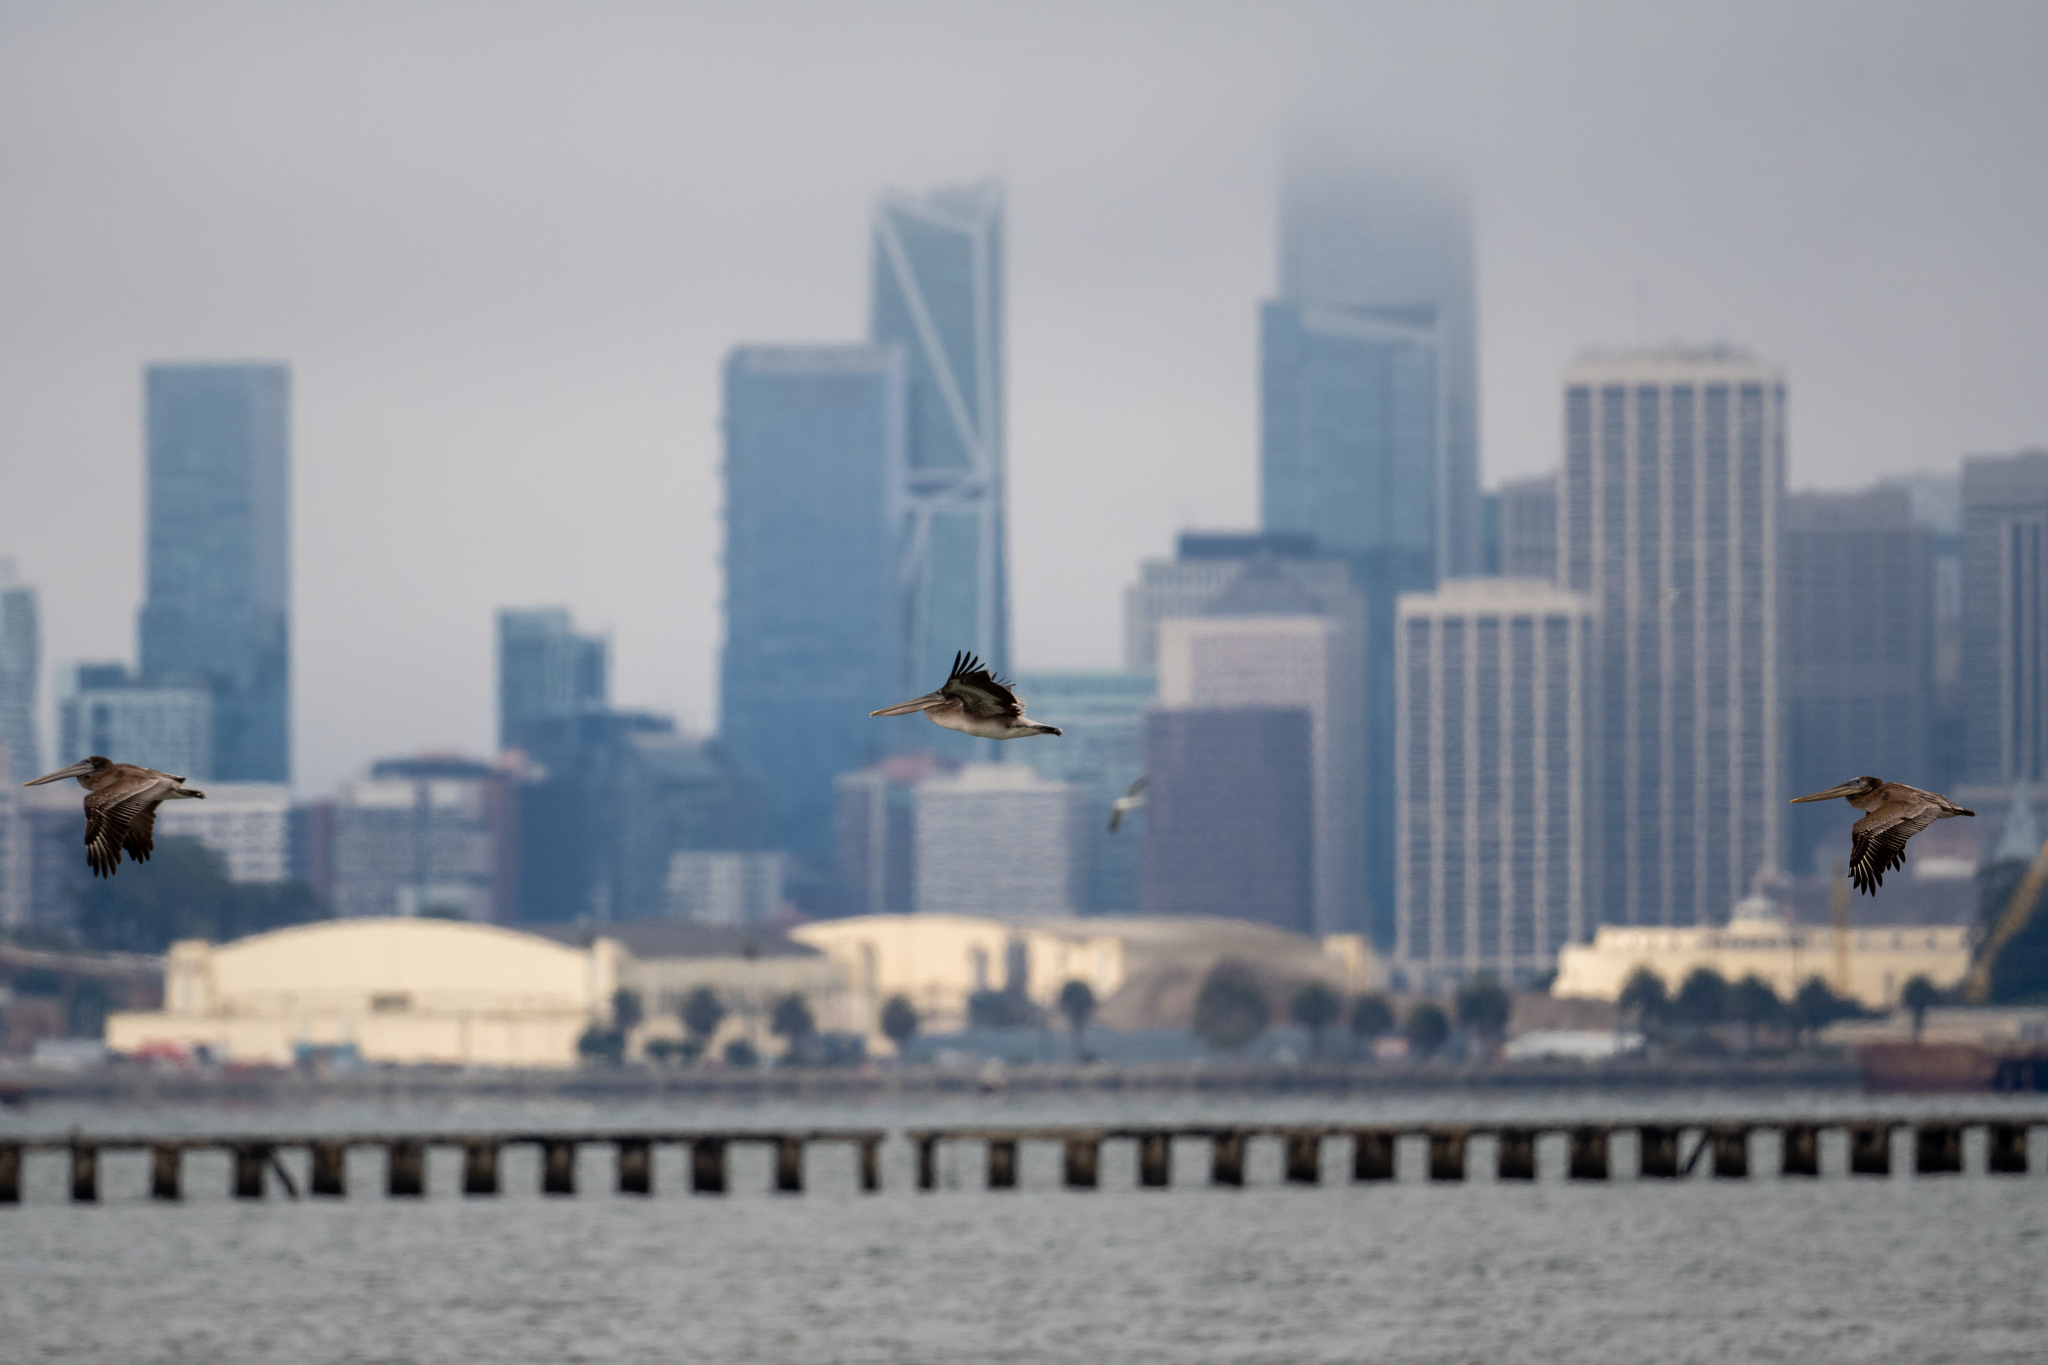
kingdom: Animalia
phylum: Chordata
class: Aves
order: Pelecaniformes
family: Pelecanidae
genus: Pelecanus
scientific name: Pelecanus occidentalis
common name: Brown pelican
